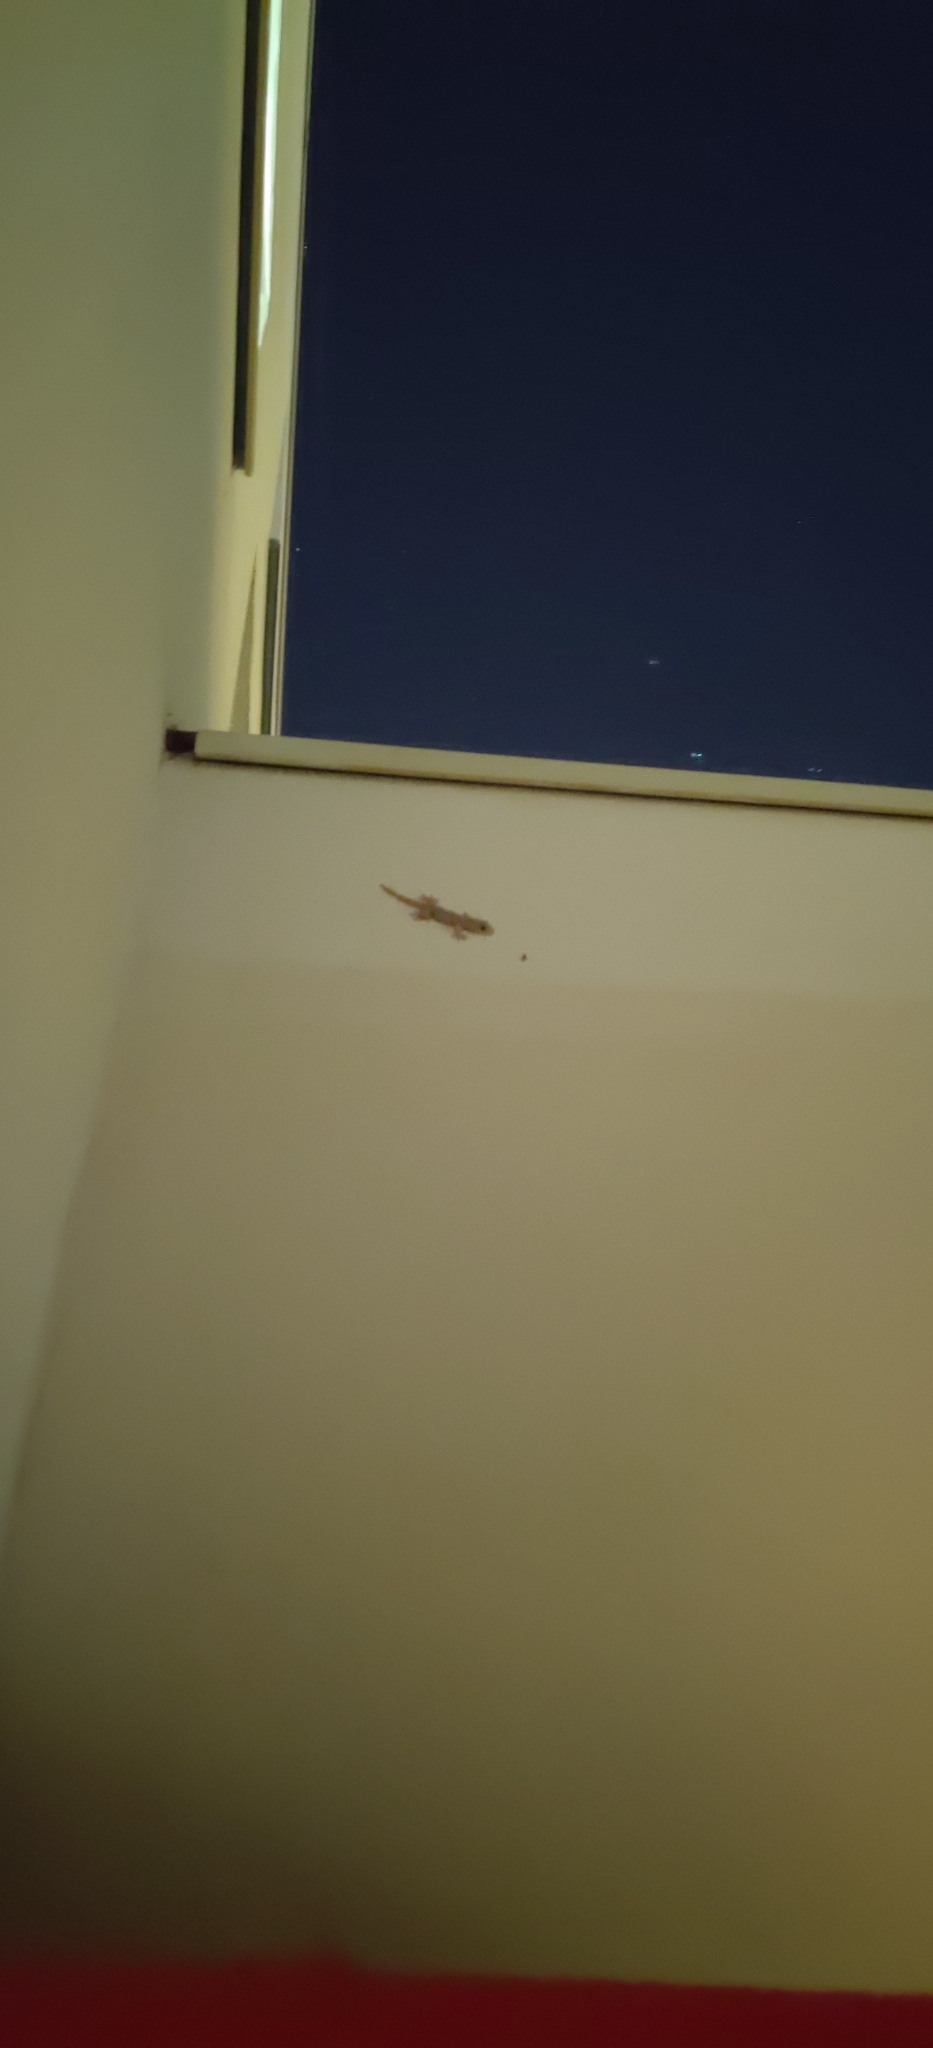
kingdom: Animalia
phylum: Chordata
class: Squamata
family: Phyllodactylidae
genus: Tarentola
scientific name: Tarentola mauritanica
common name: Moorish gecko
